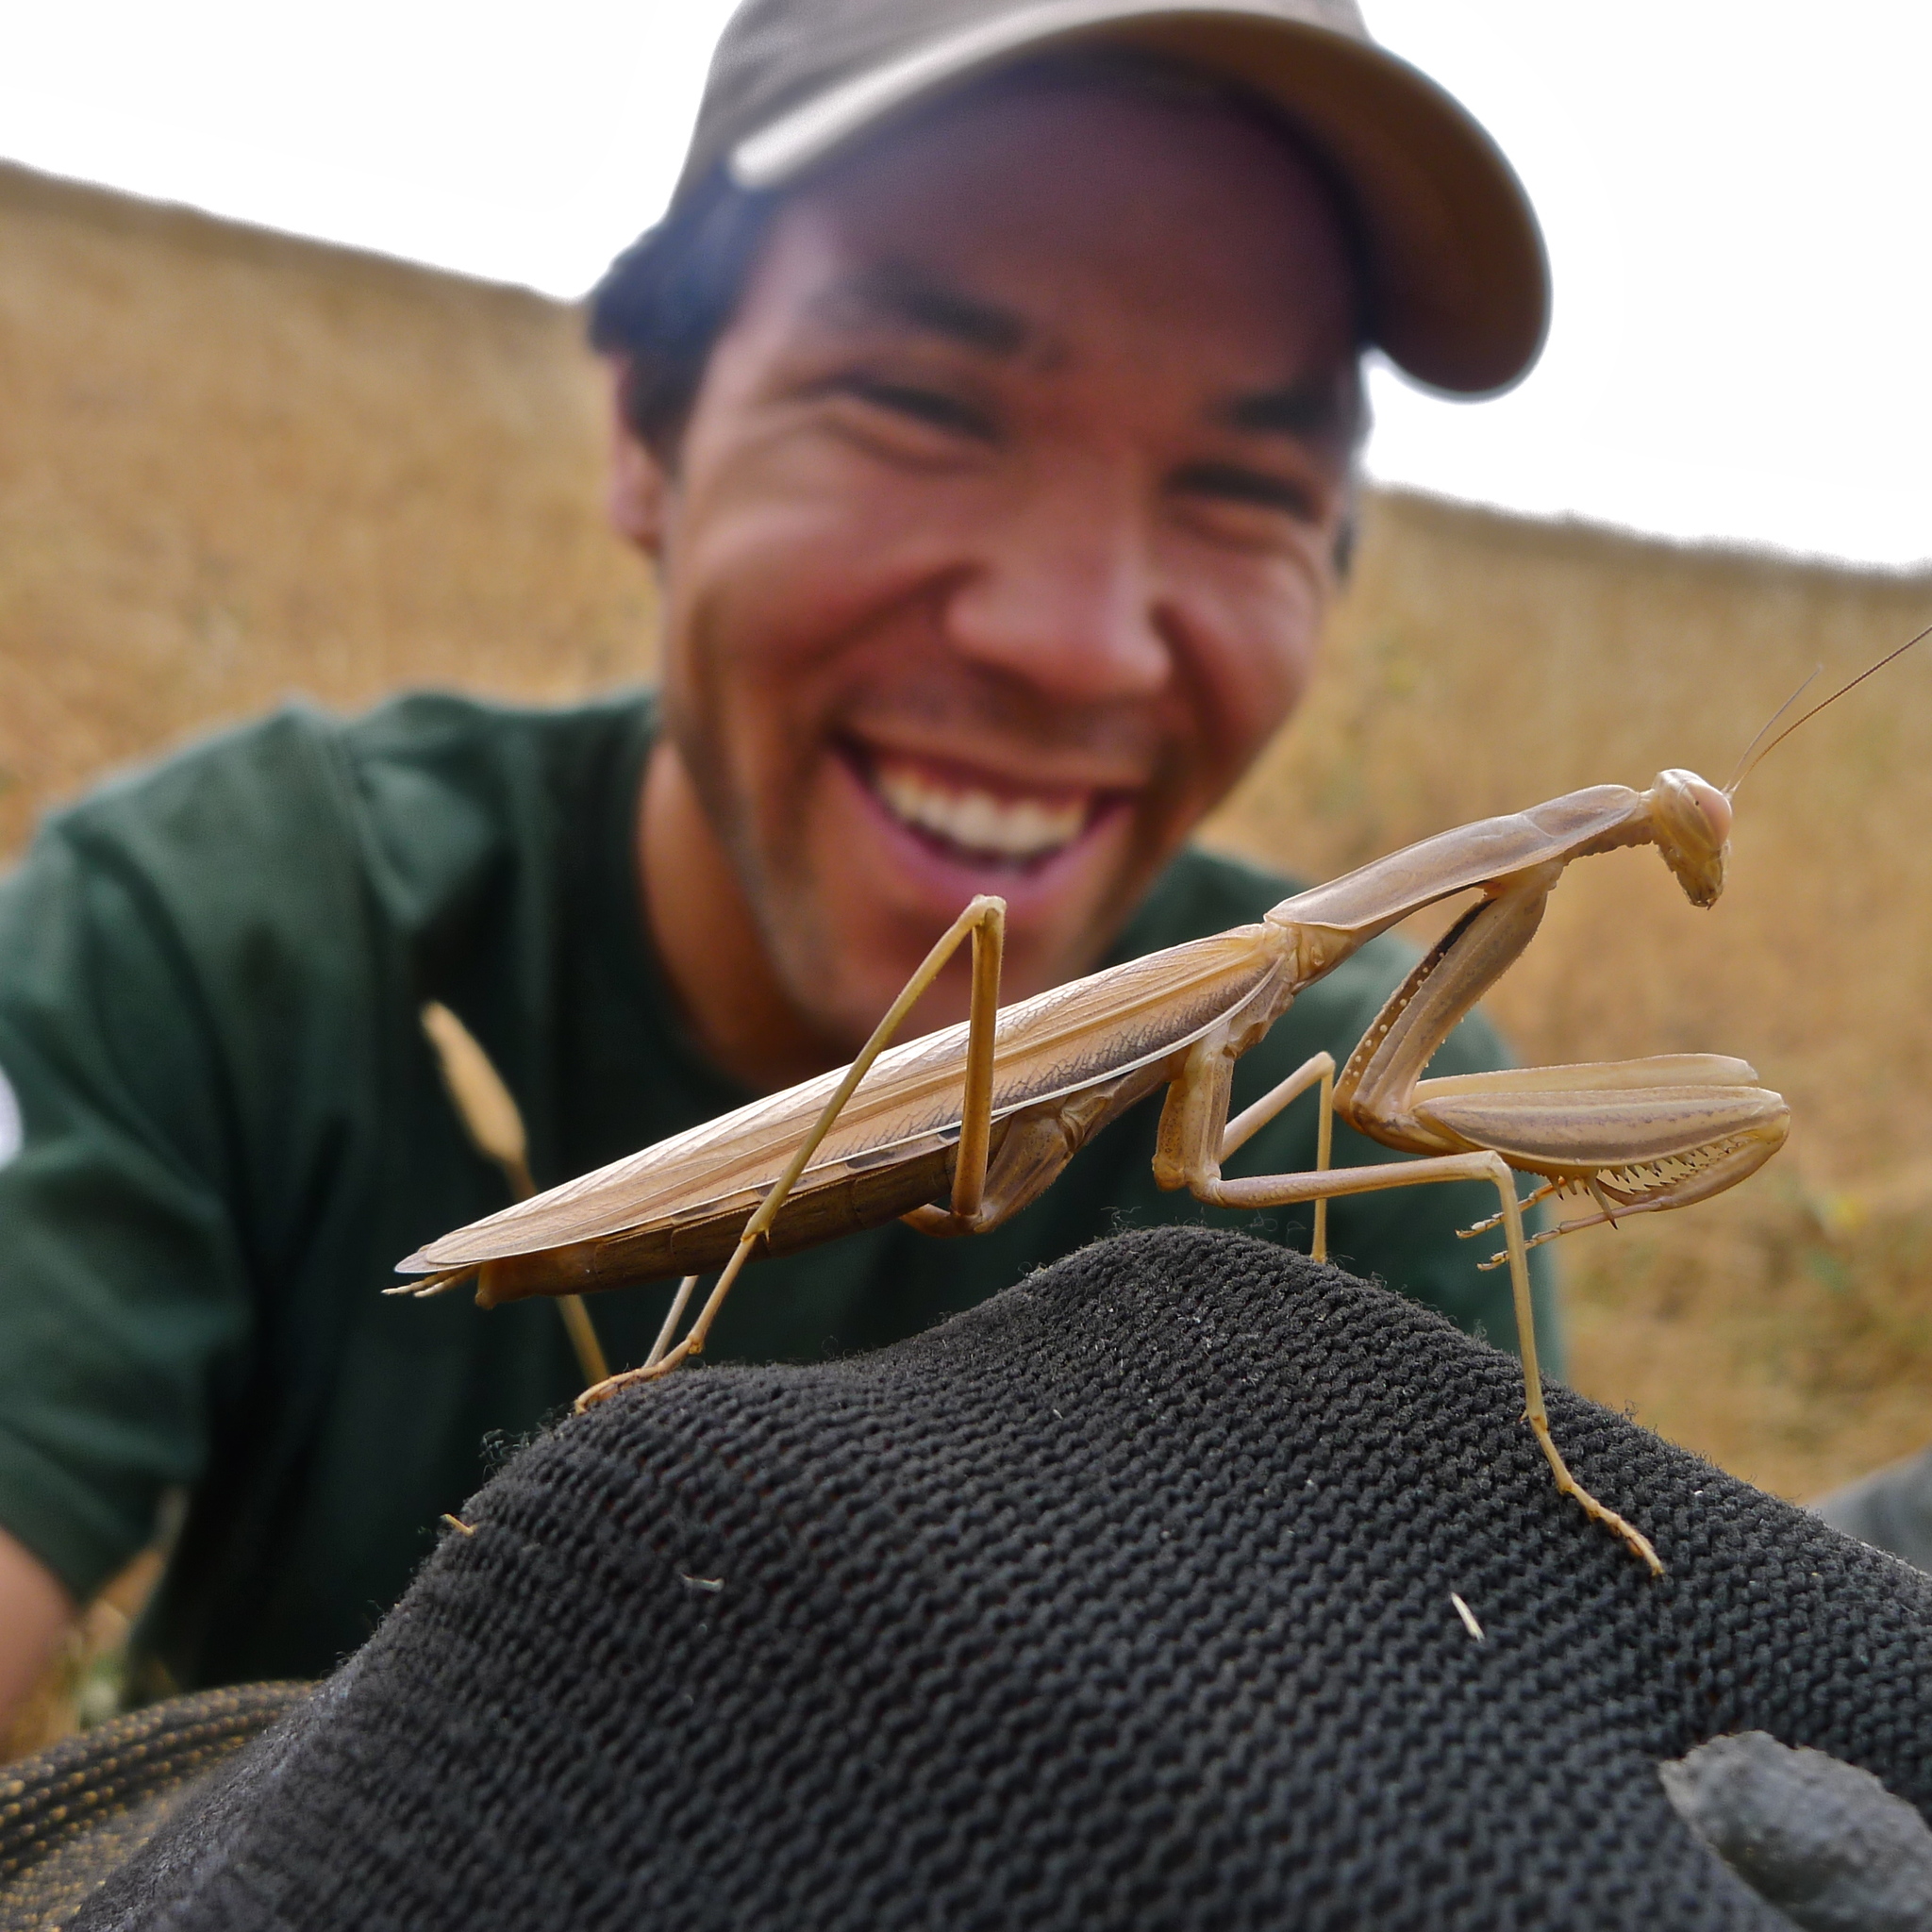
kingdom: Animalia
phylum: Arthropoda
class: Insecta
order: Mantodea
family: Mantidae
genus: Mantis
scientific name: Mantis religiosa
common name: Praying mantis
